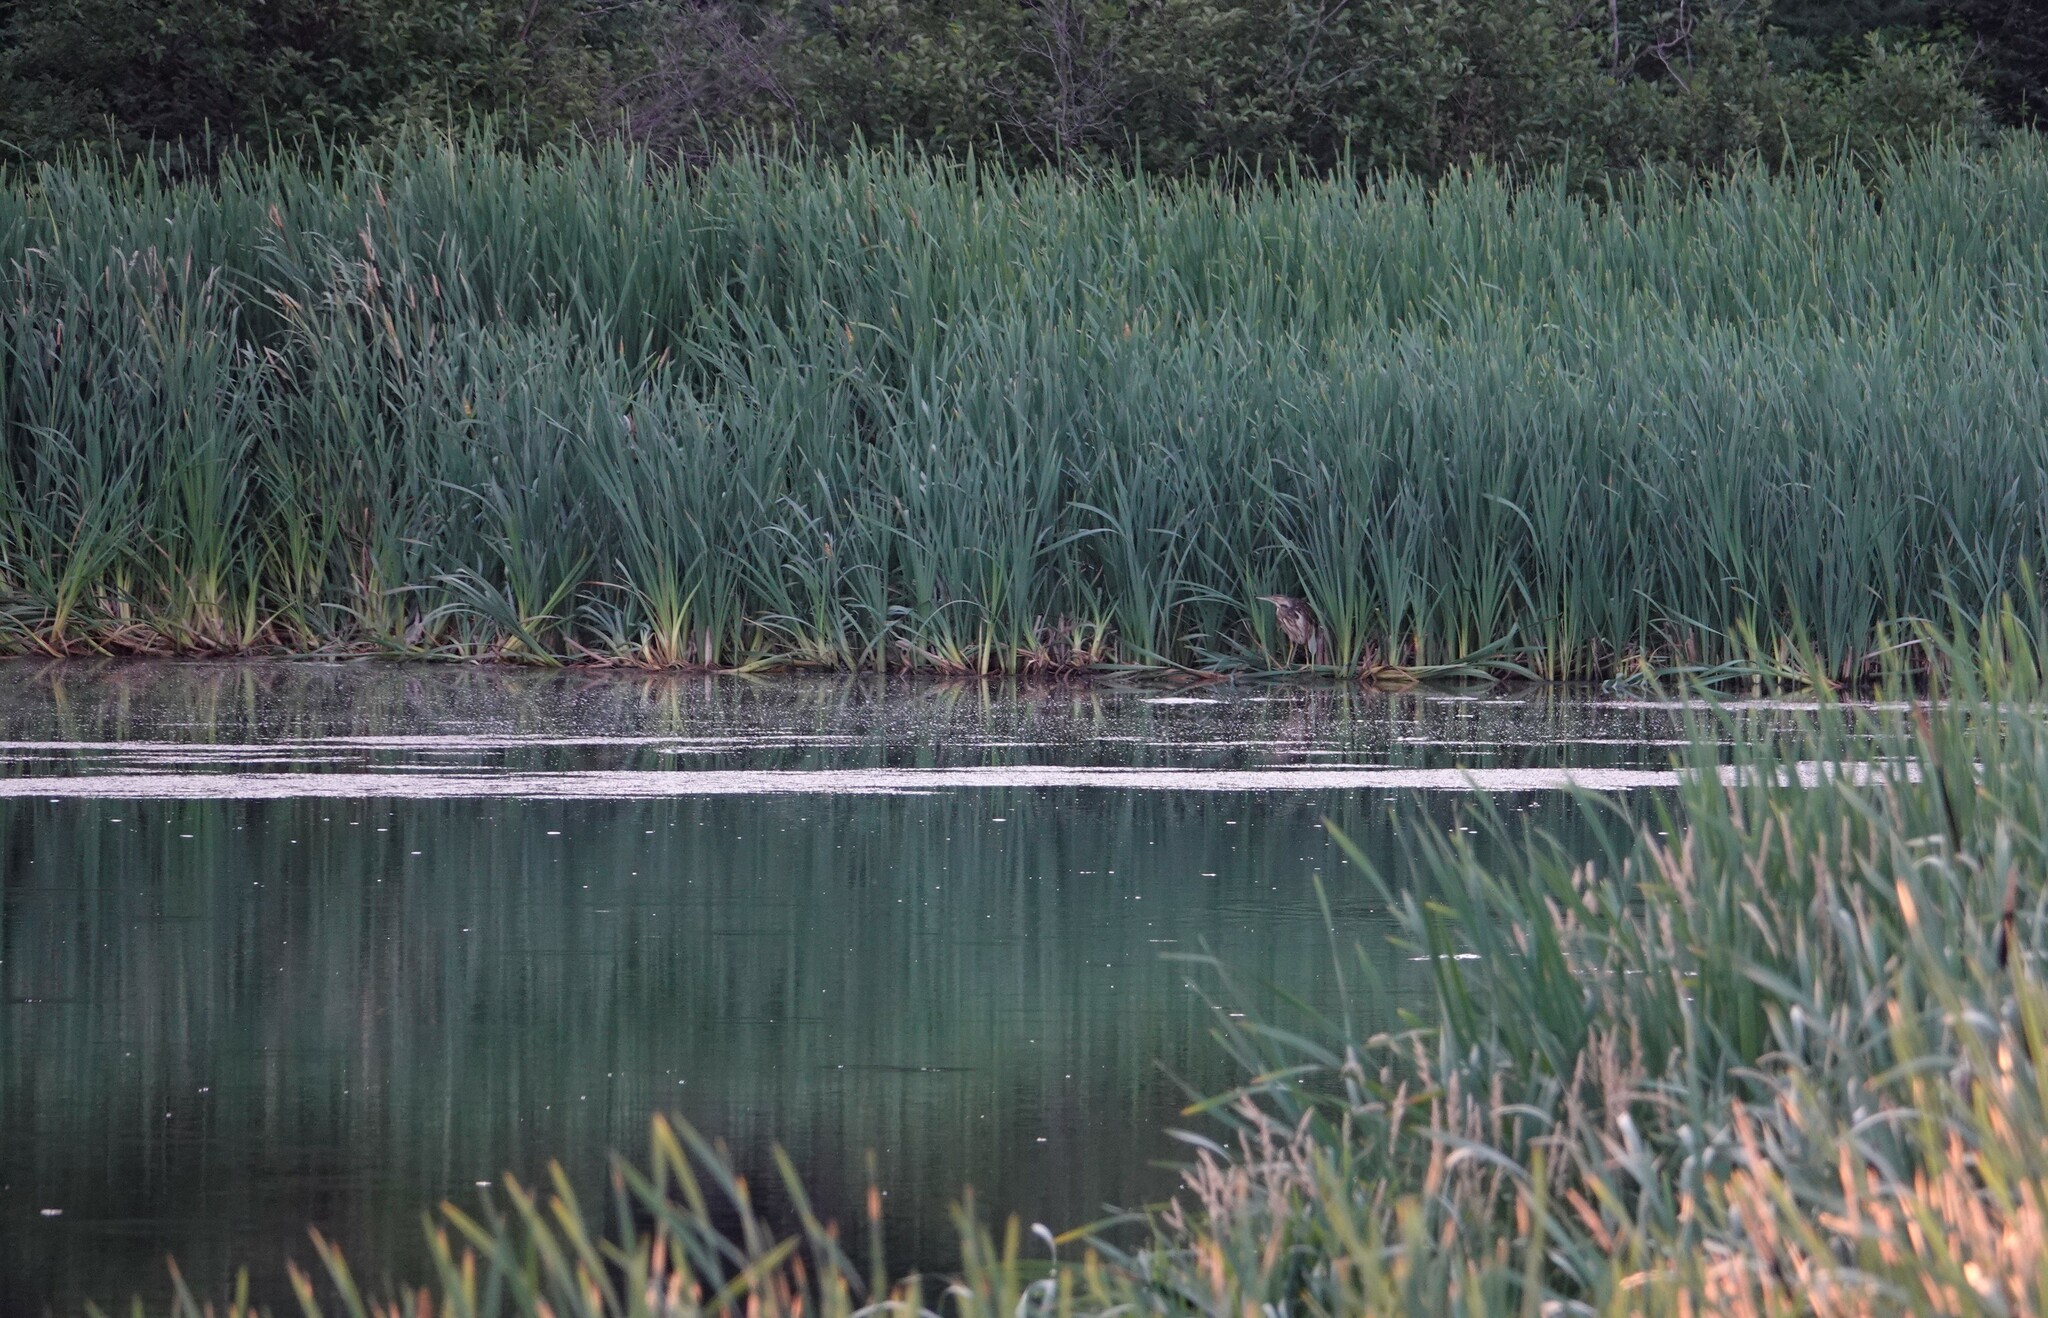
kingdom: Animalia
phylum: Chordata
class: Aves
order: Pelecaniformes
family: Ardeidae
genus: Botaurus
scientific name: Botaurus lentiginosus
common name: American bittern
